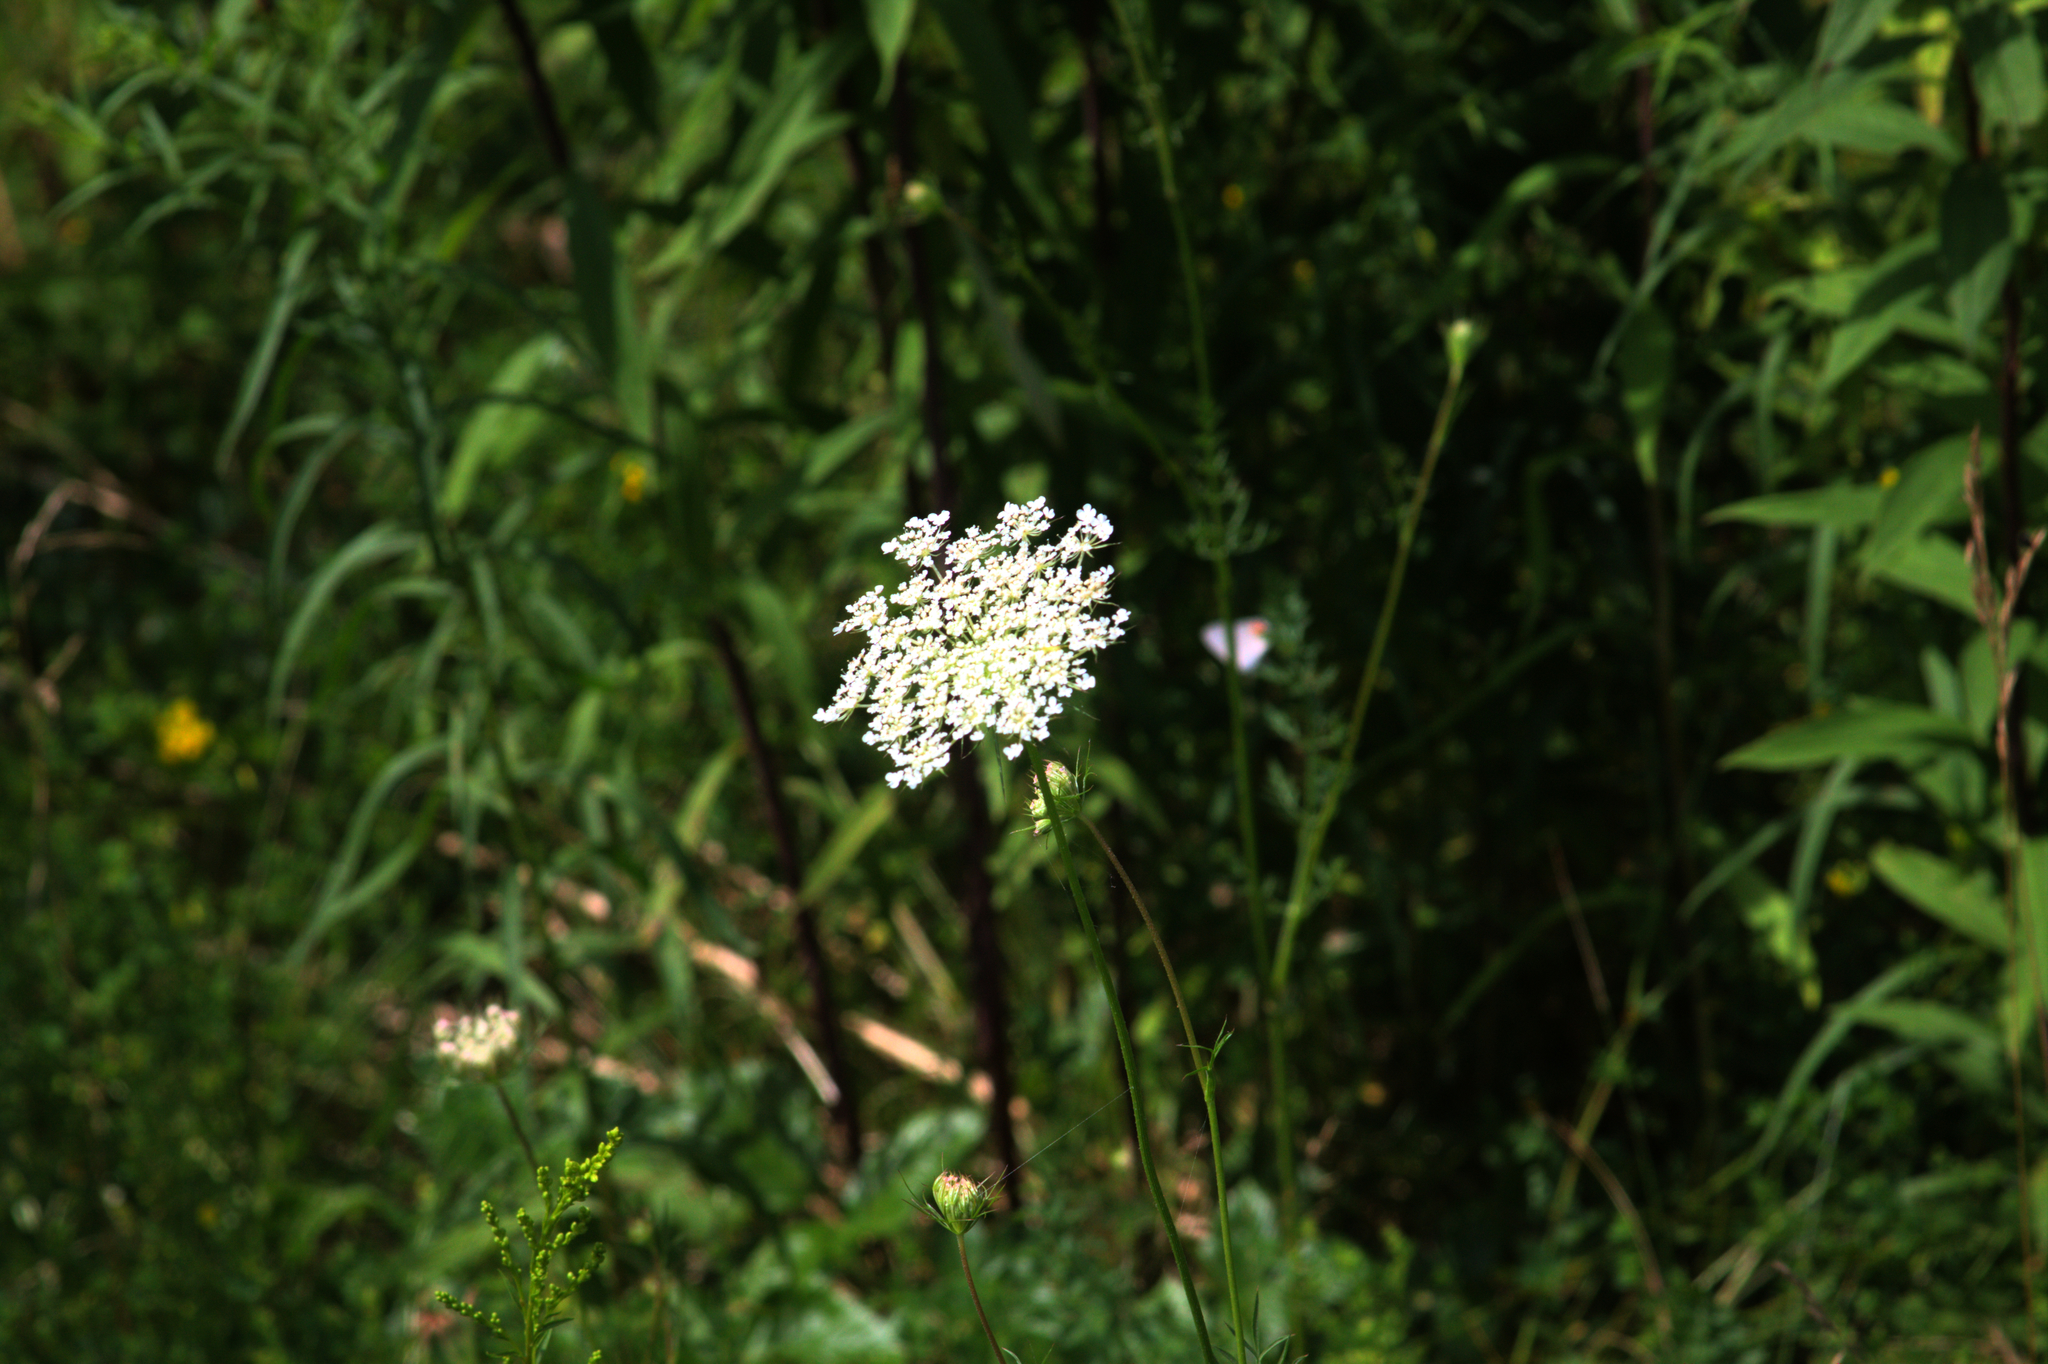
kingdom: Plantae
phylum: Tracheophyta
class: Magnoliopsida
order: Apiales
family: Apiaceae
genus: Daucus
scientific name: Daucus carota
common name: Wild carrot
